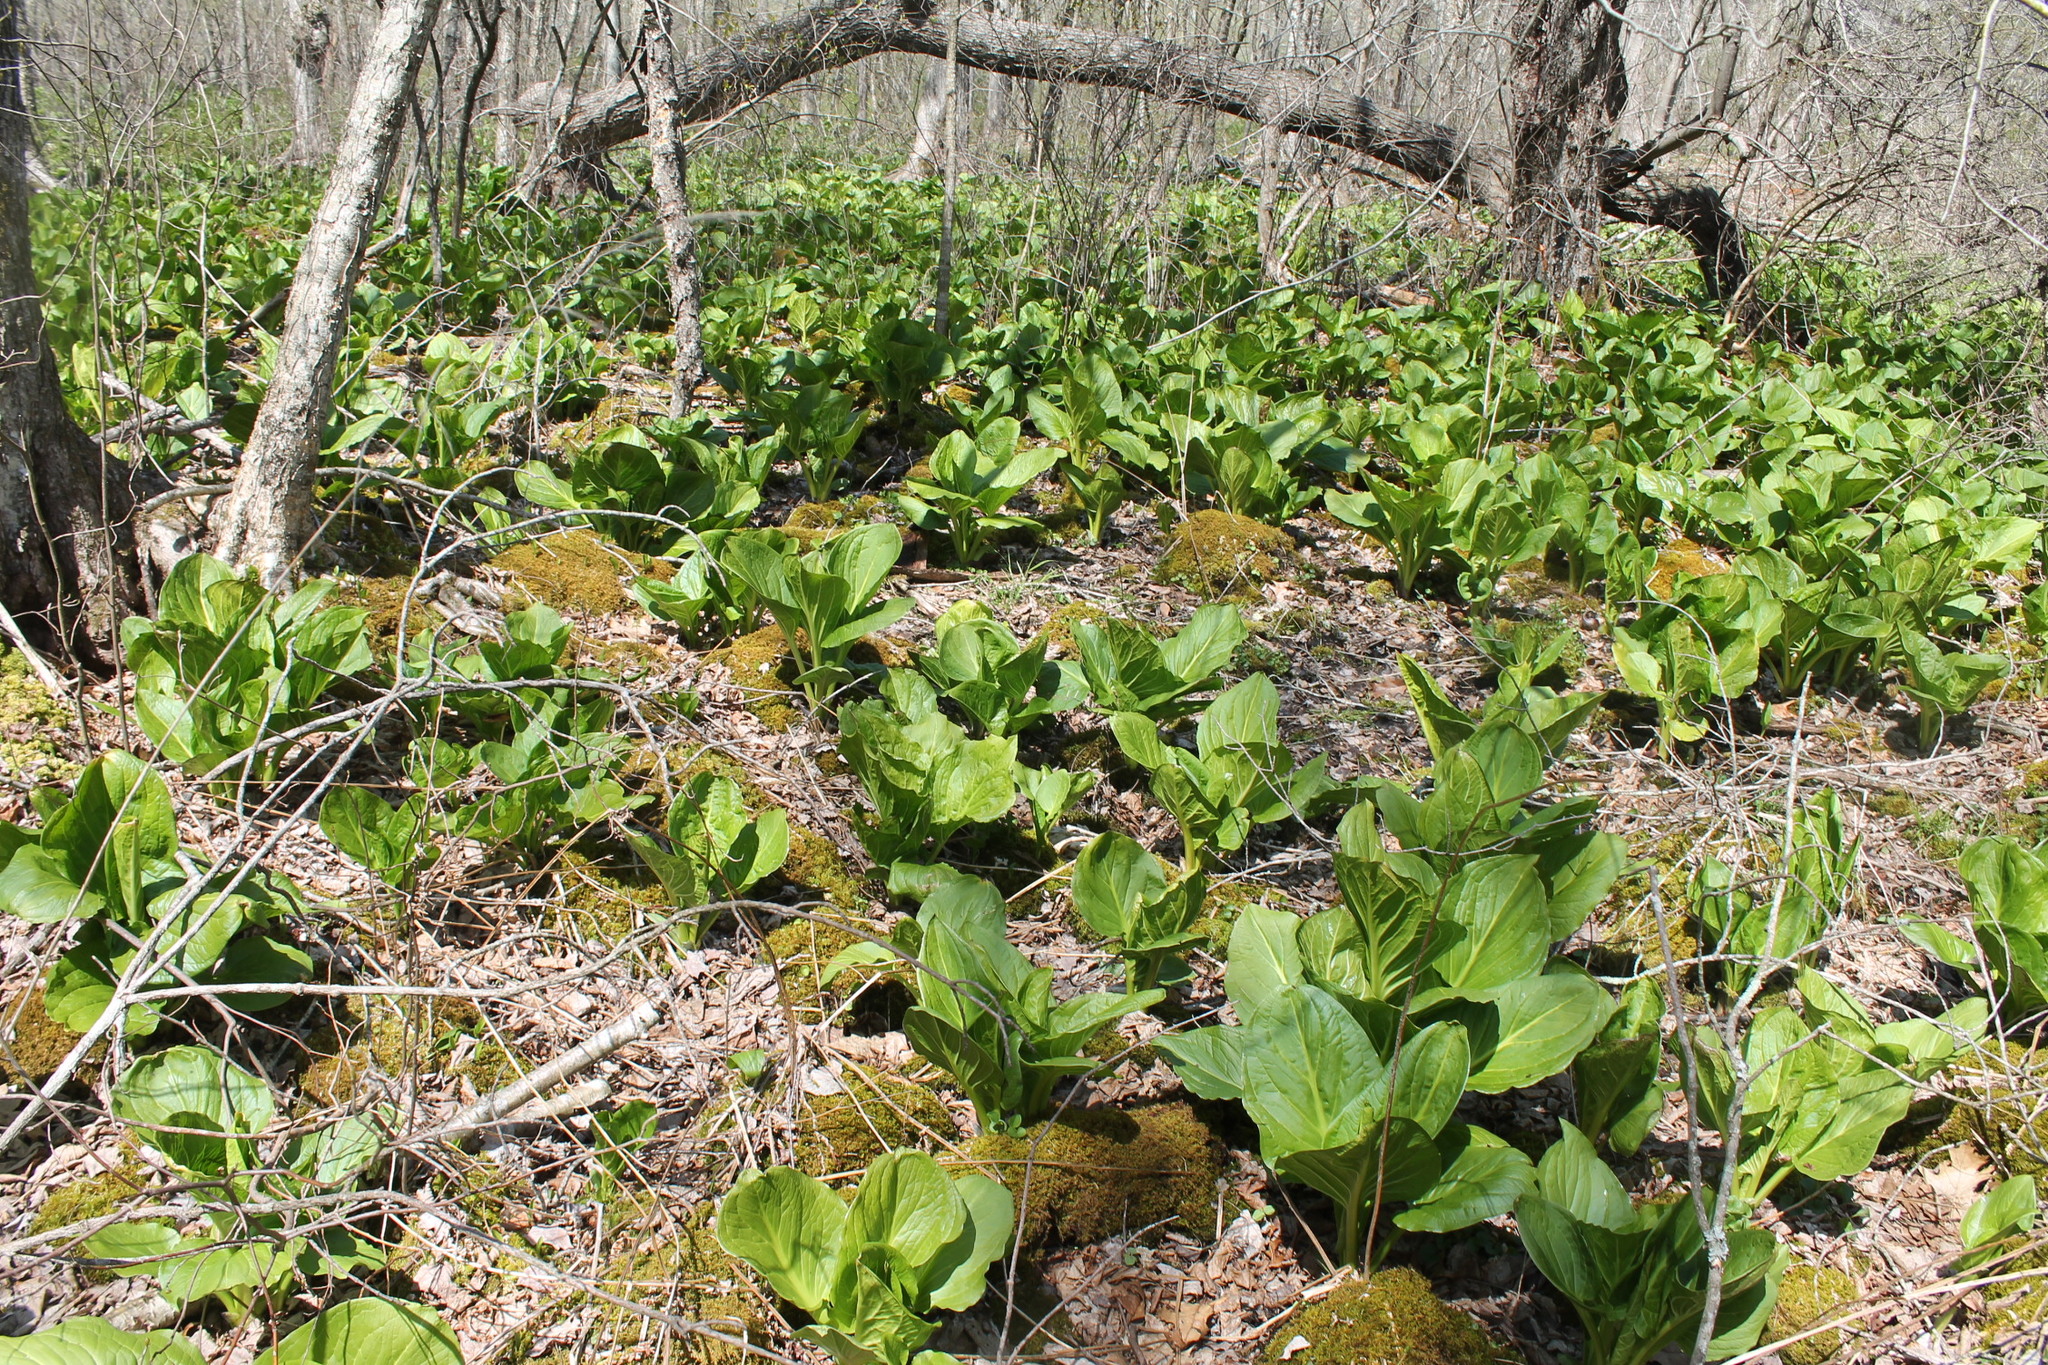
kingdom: Plantae
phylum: Tracheophyta
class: Liliopsida
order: Alismatales
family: Araceae
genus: Symplocarpus
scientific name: Symplocarpus foetidus
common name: Eastern skunk cabbage
